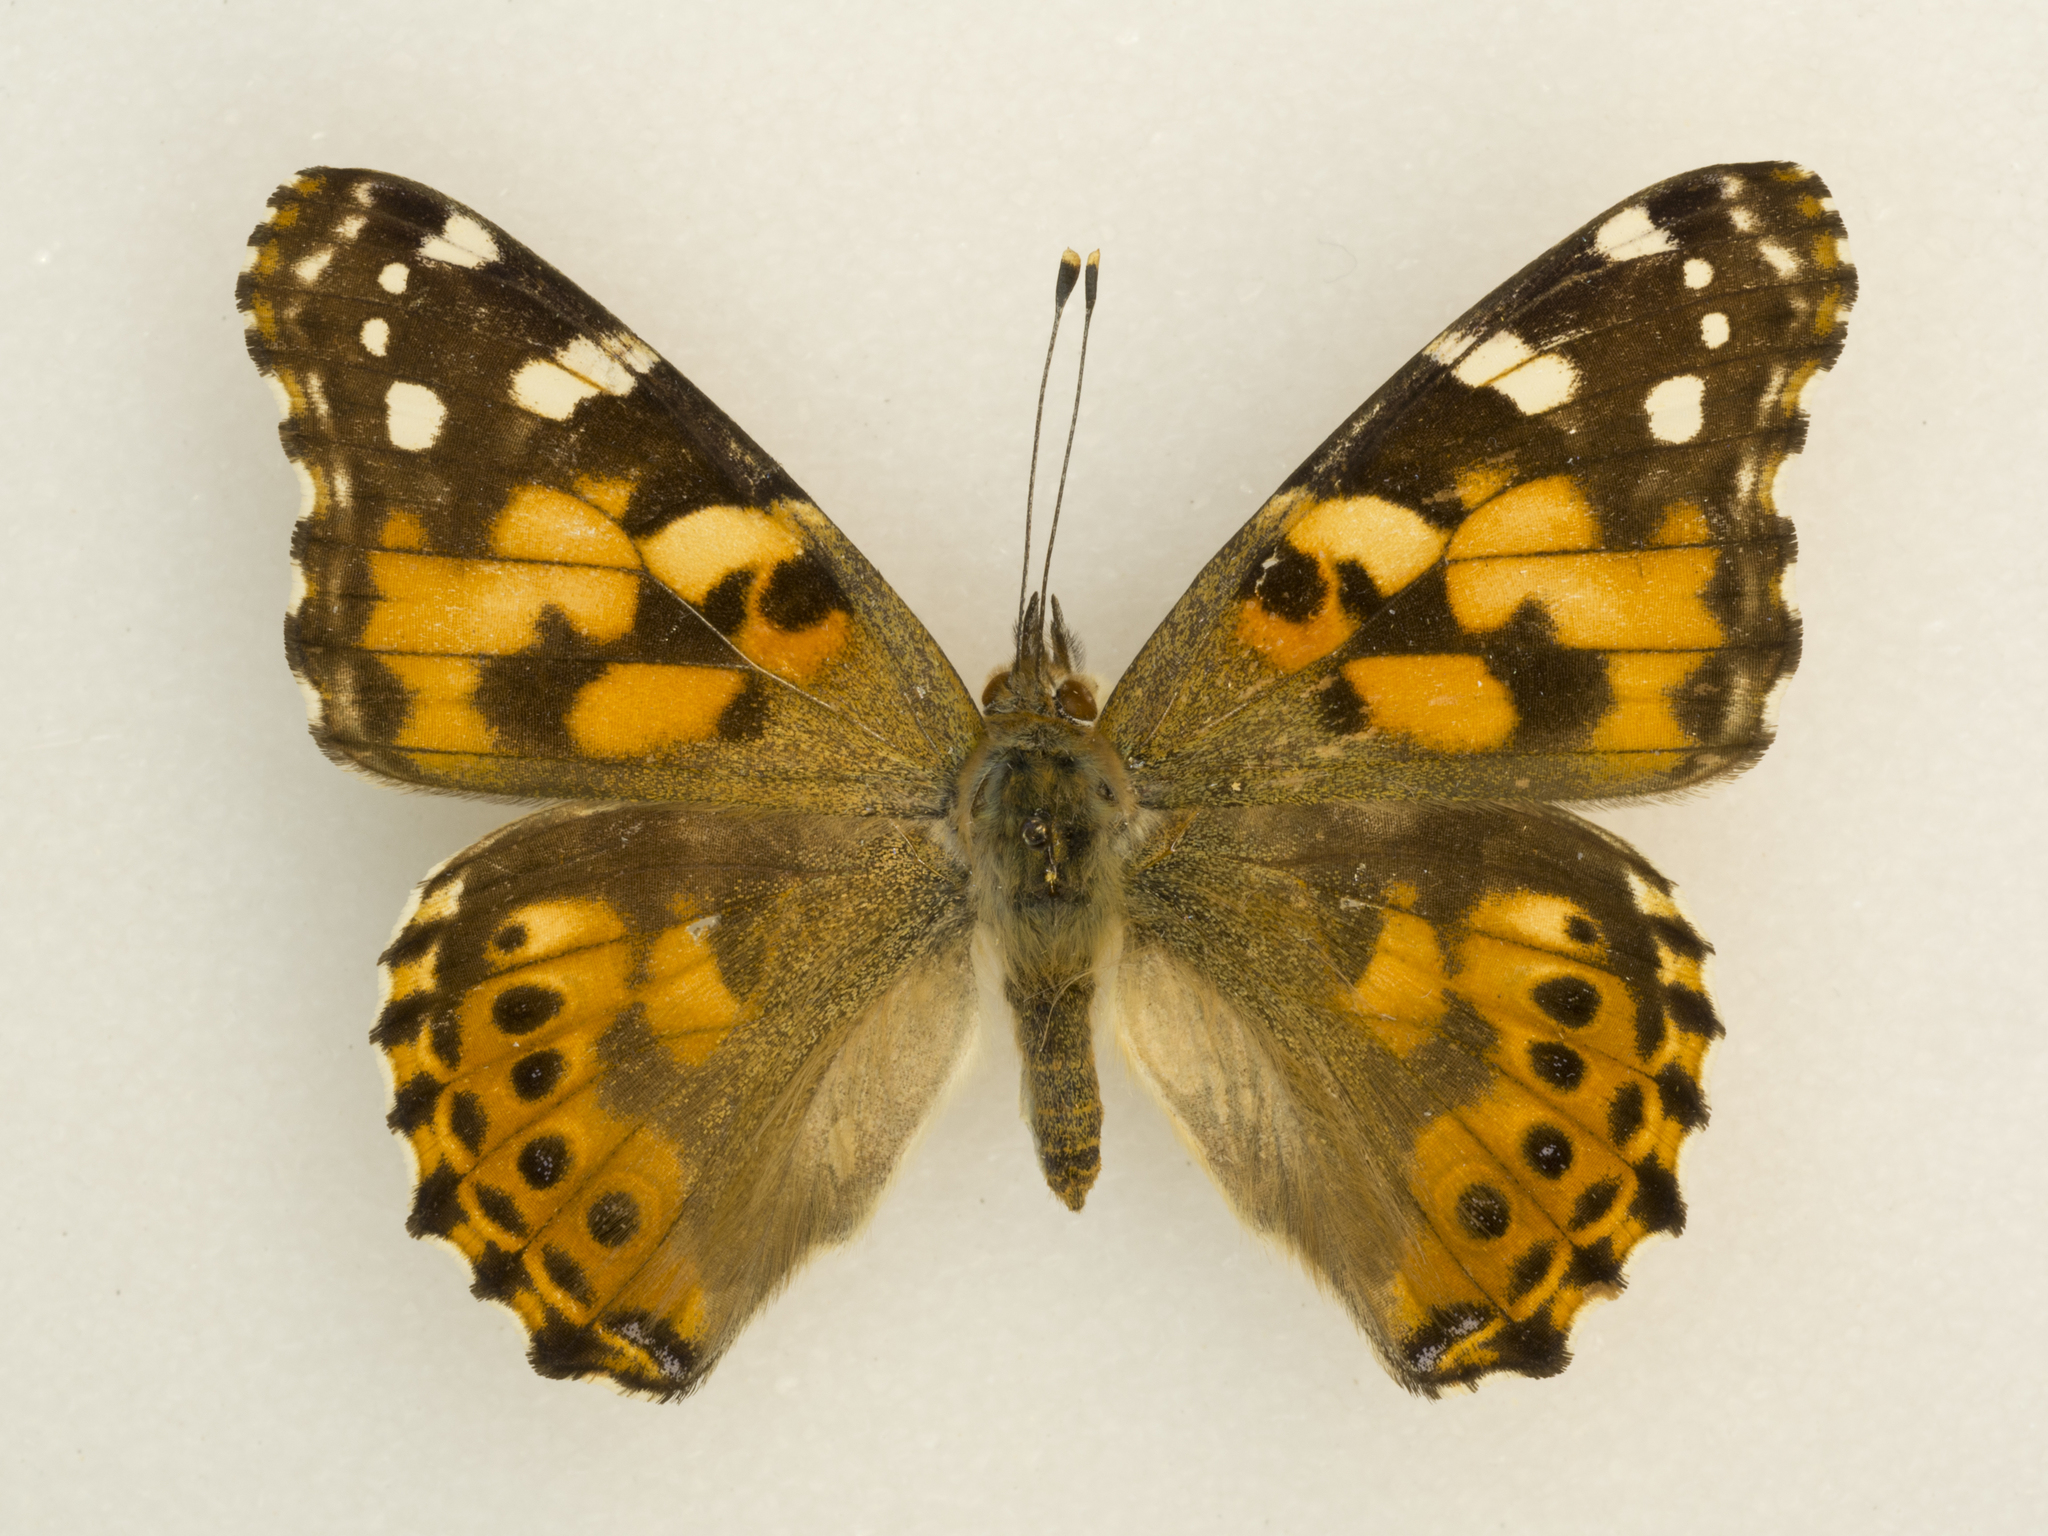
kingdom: Animalia
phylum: Arthropoda
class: Insecta
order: Lepidoptera
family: Nymphalidae
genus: Vanessa
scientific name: Vanessa cardui
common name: Painted lady
